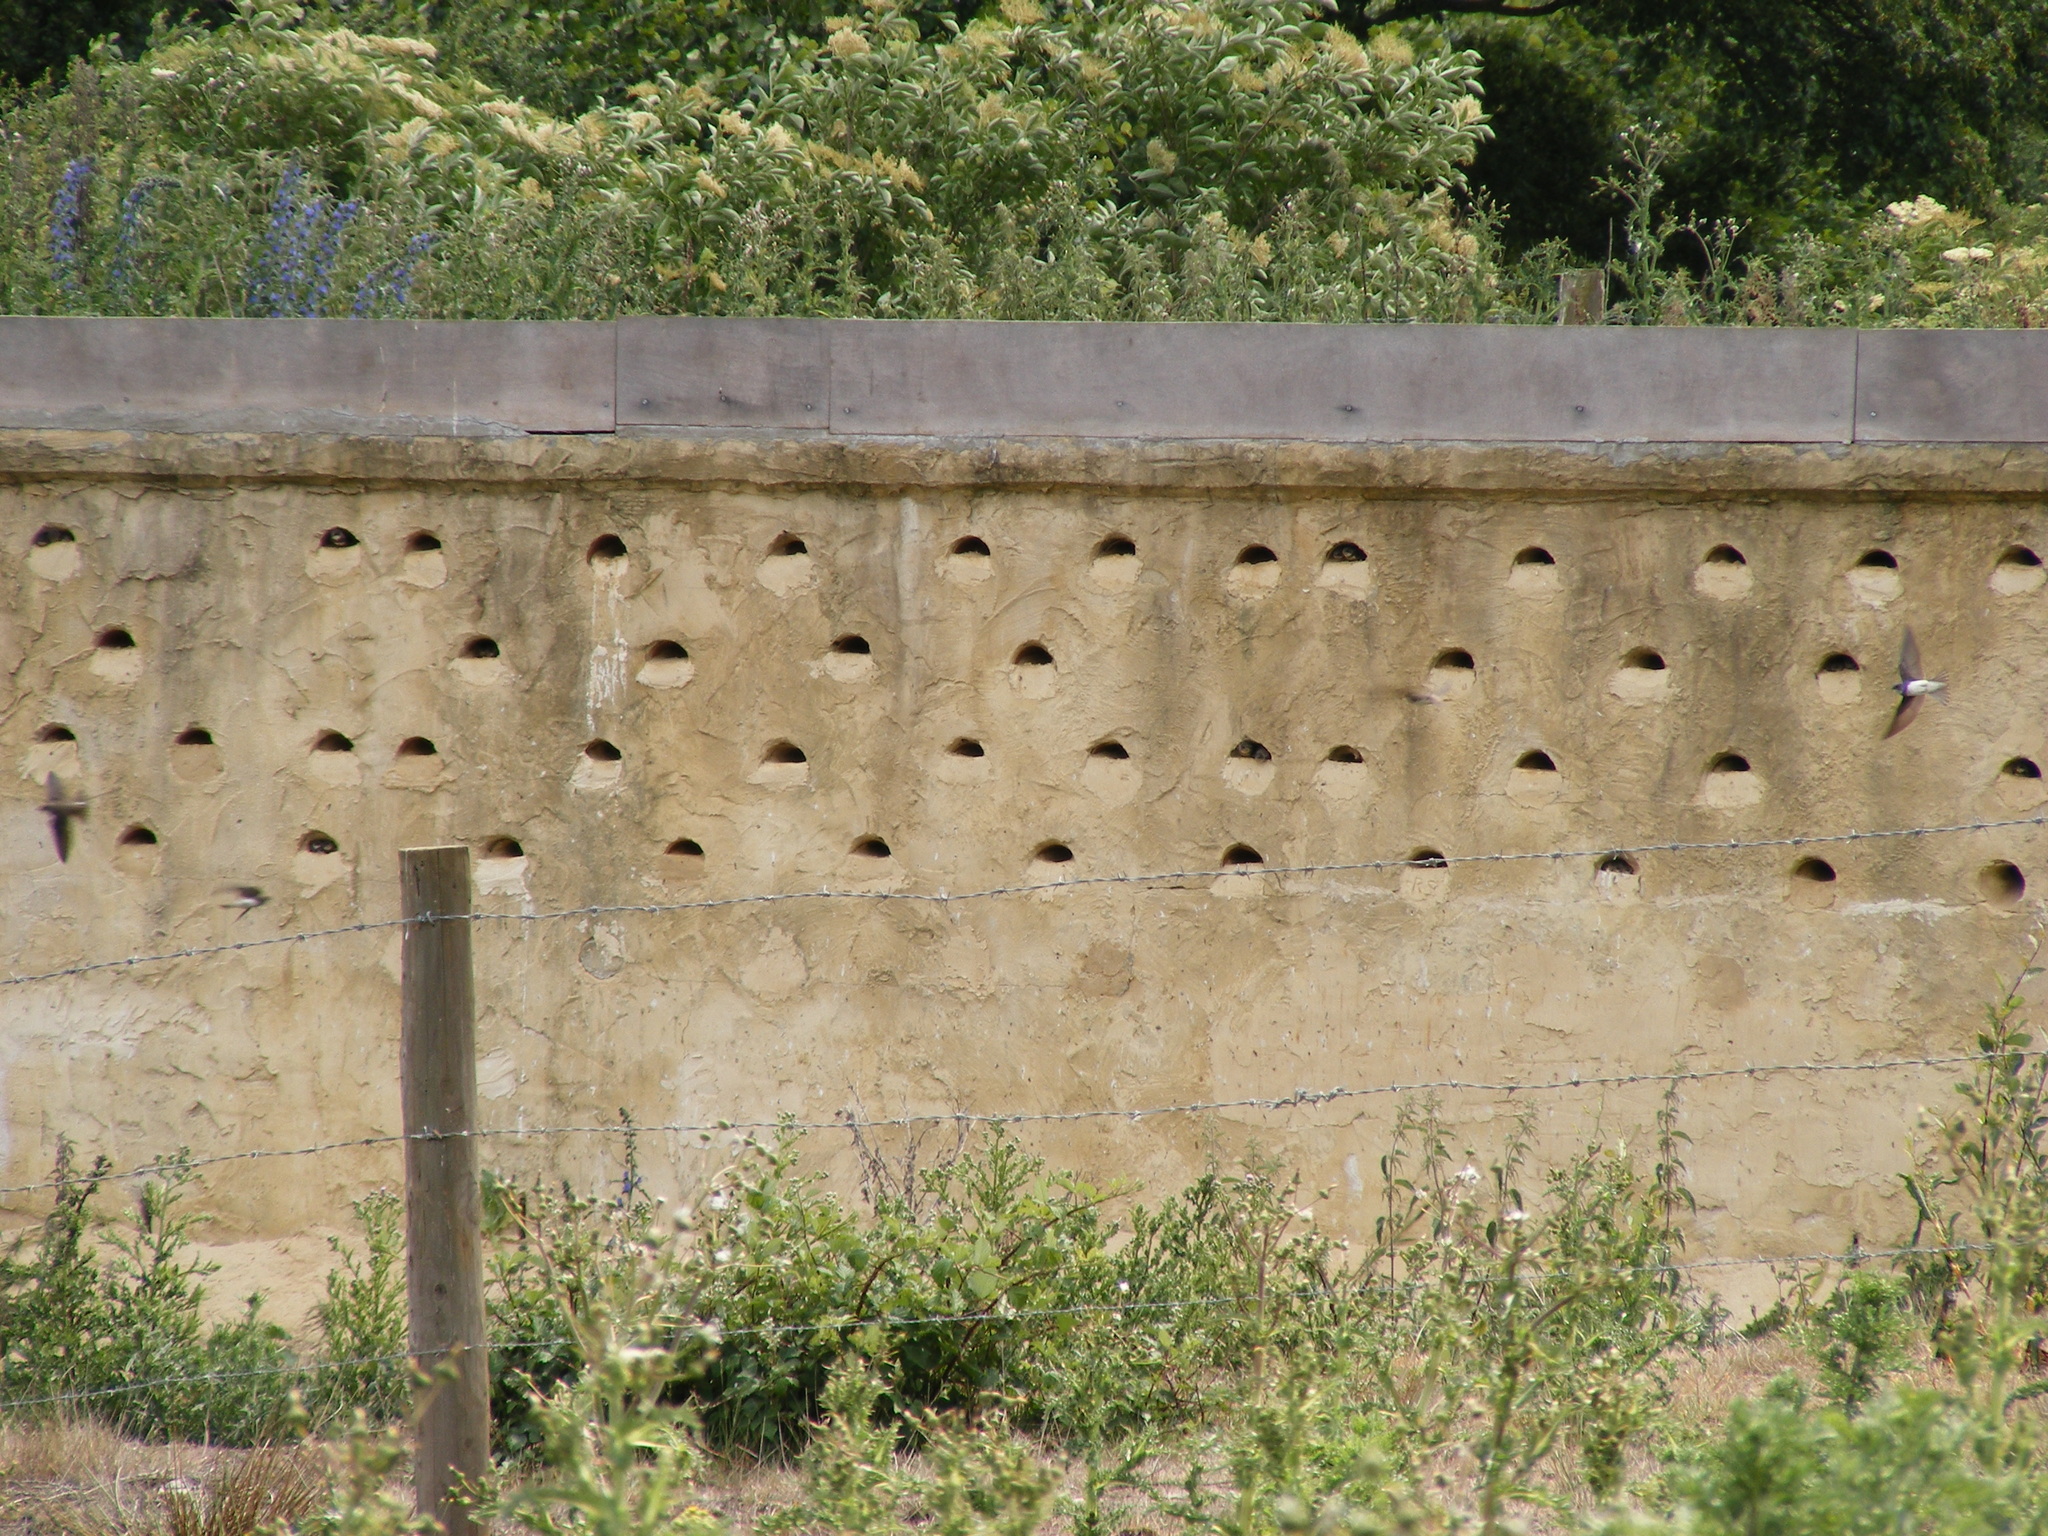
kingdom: Animalia
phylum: Chordata
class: Aves
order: Passeriformes
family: Hirundinidae
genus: Riparia
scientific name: Riparia riparia
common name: Sand martin
